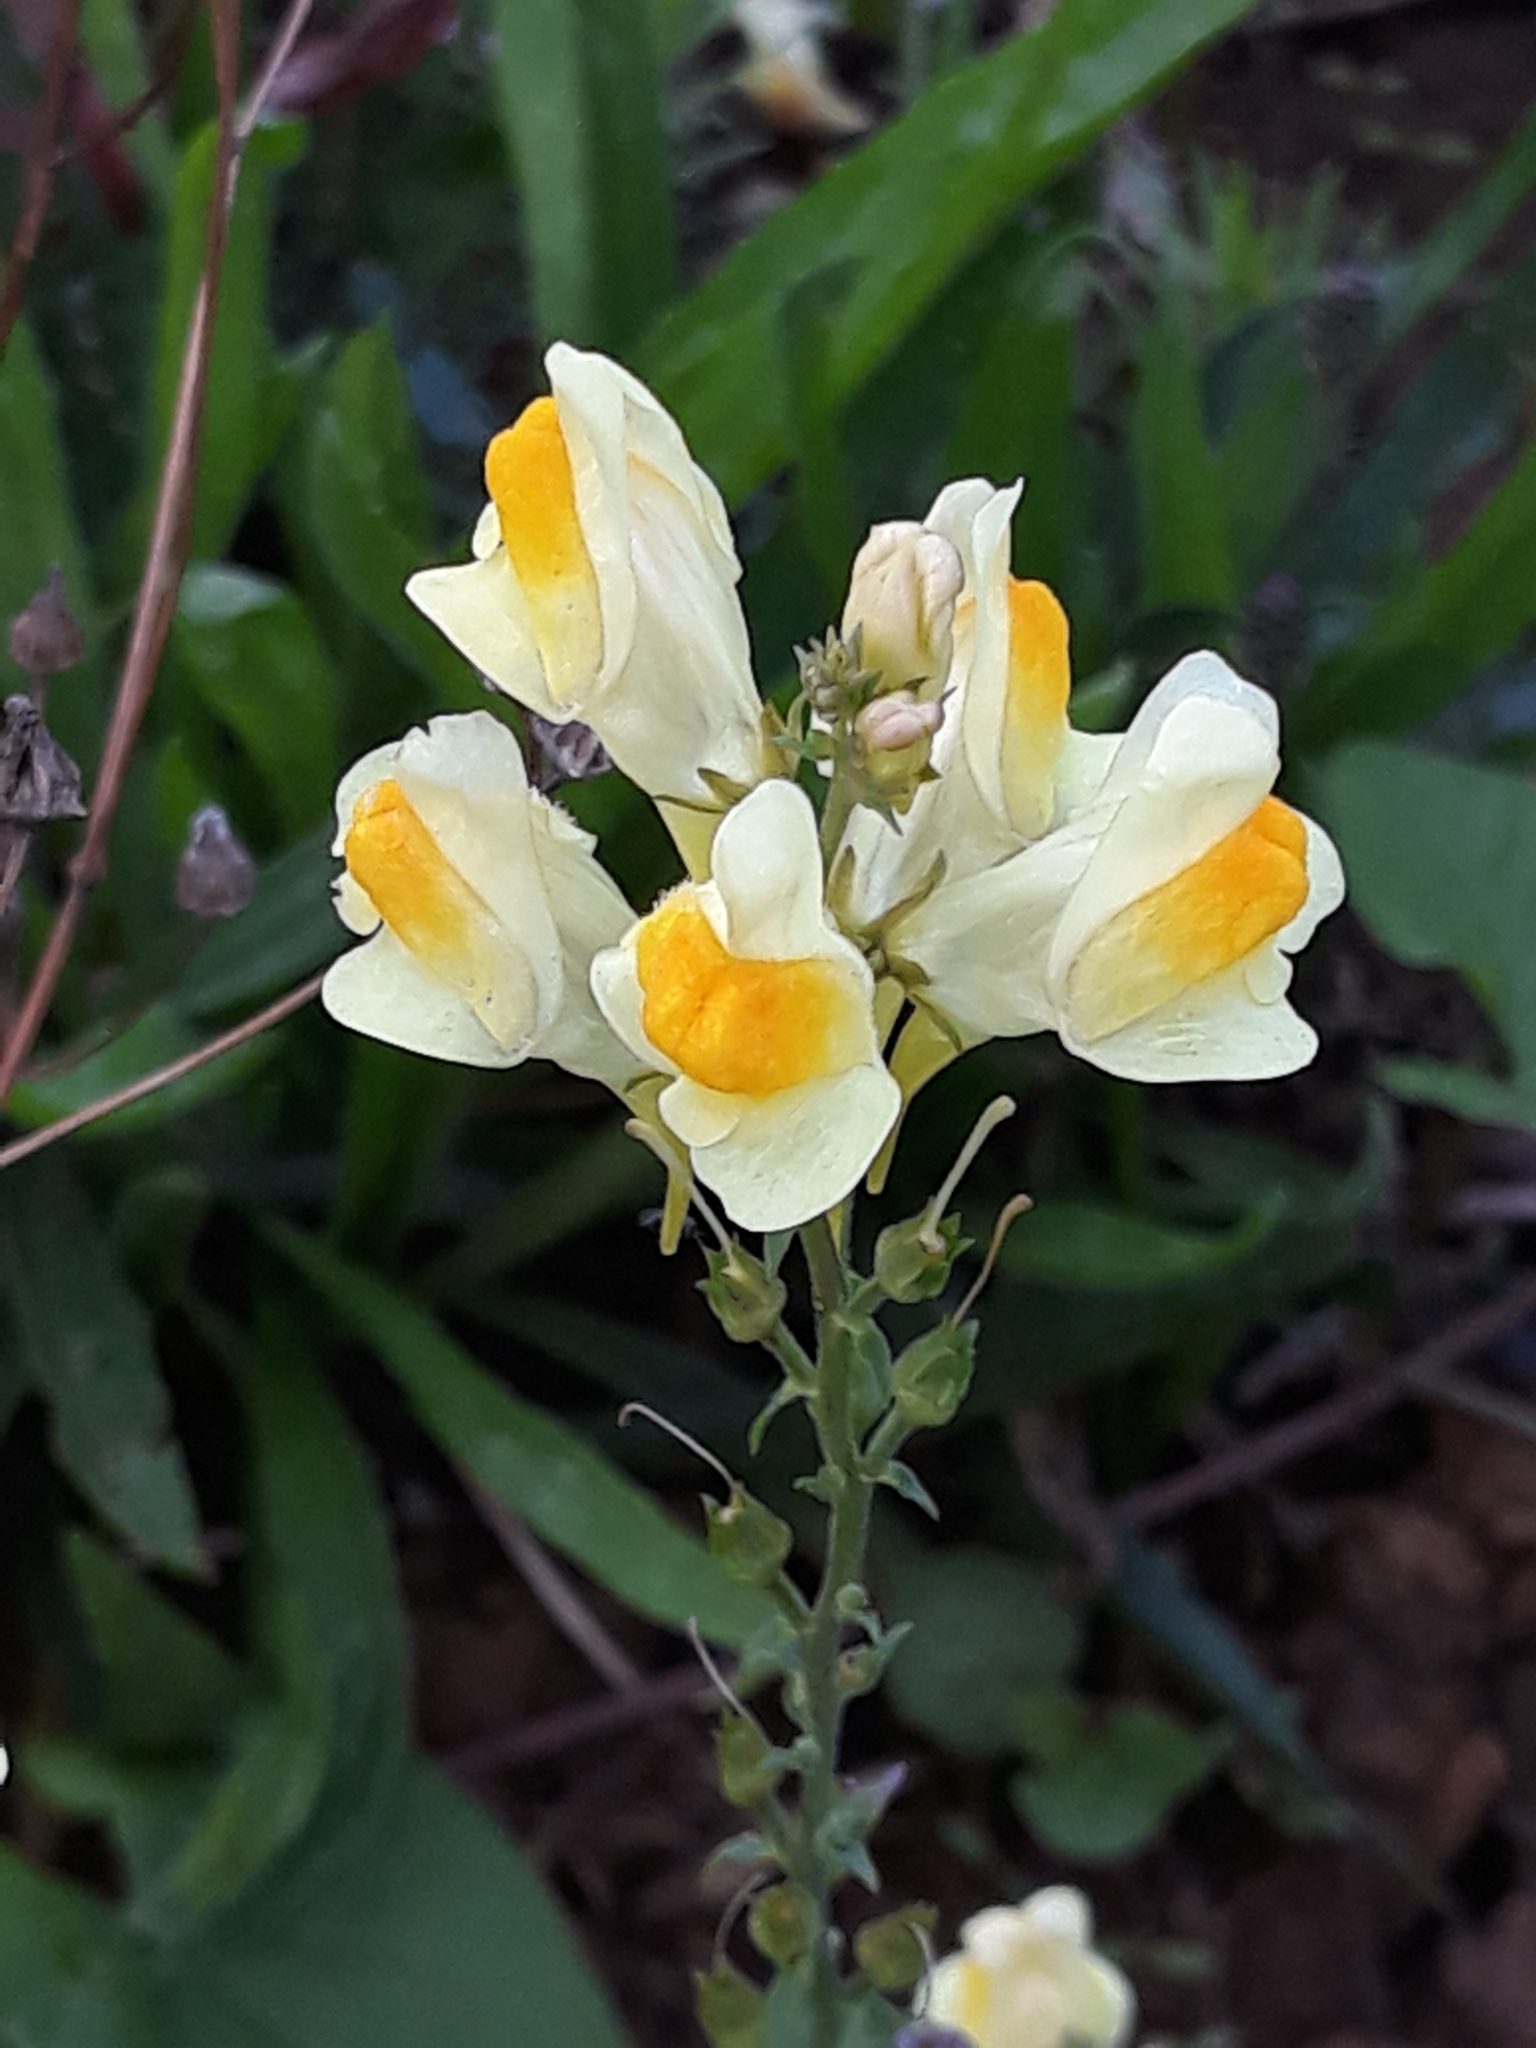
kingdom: Plantae
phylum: Tracheophyta
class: Magnoliopsida
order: Lamiales
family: Plantaginaceae
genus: Linaria
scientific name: Linaria vulgaris
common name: Butter and eggs
